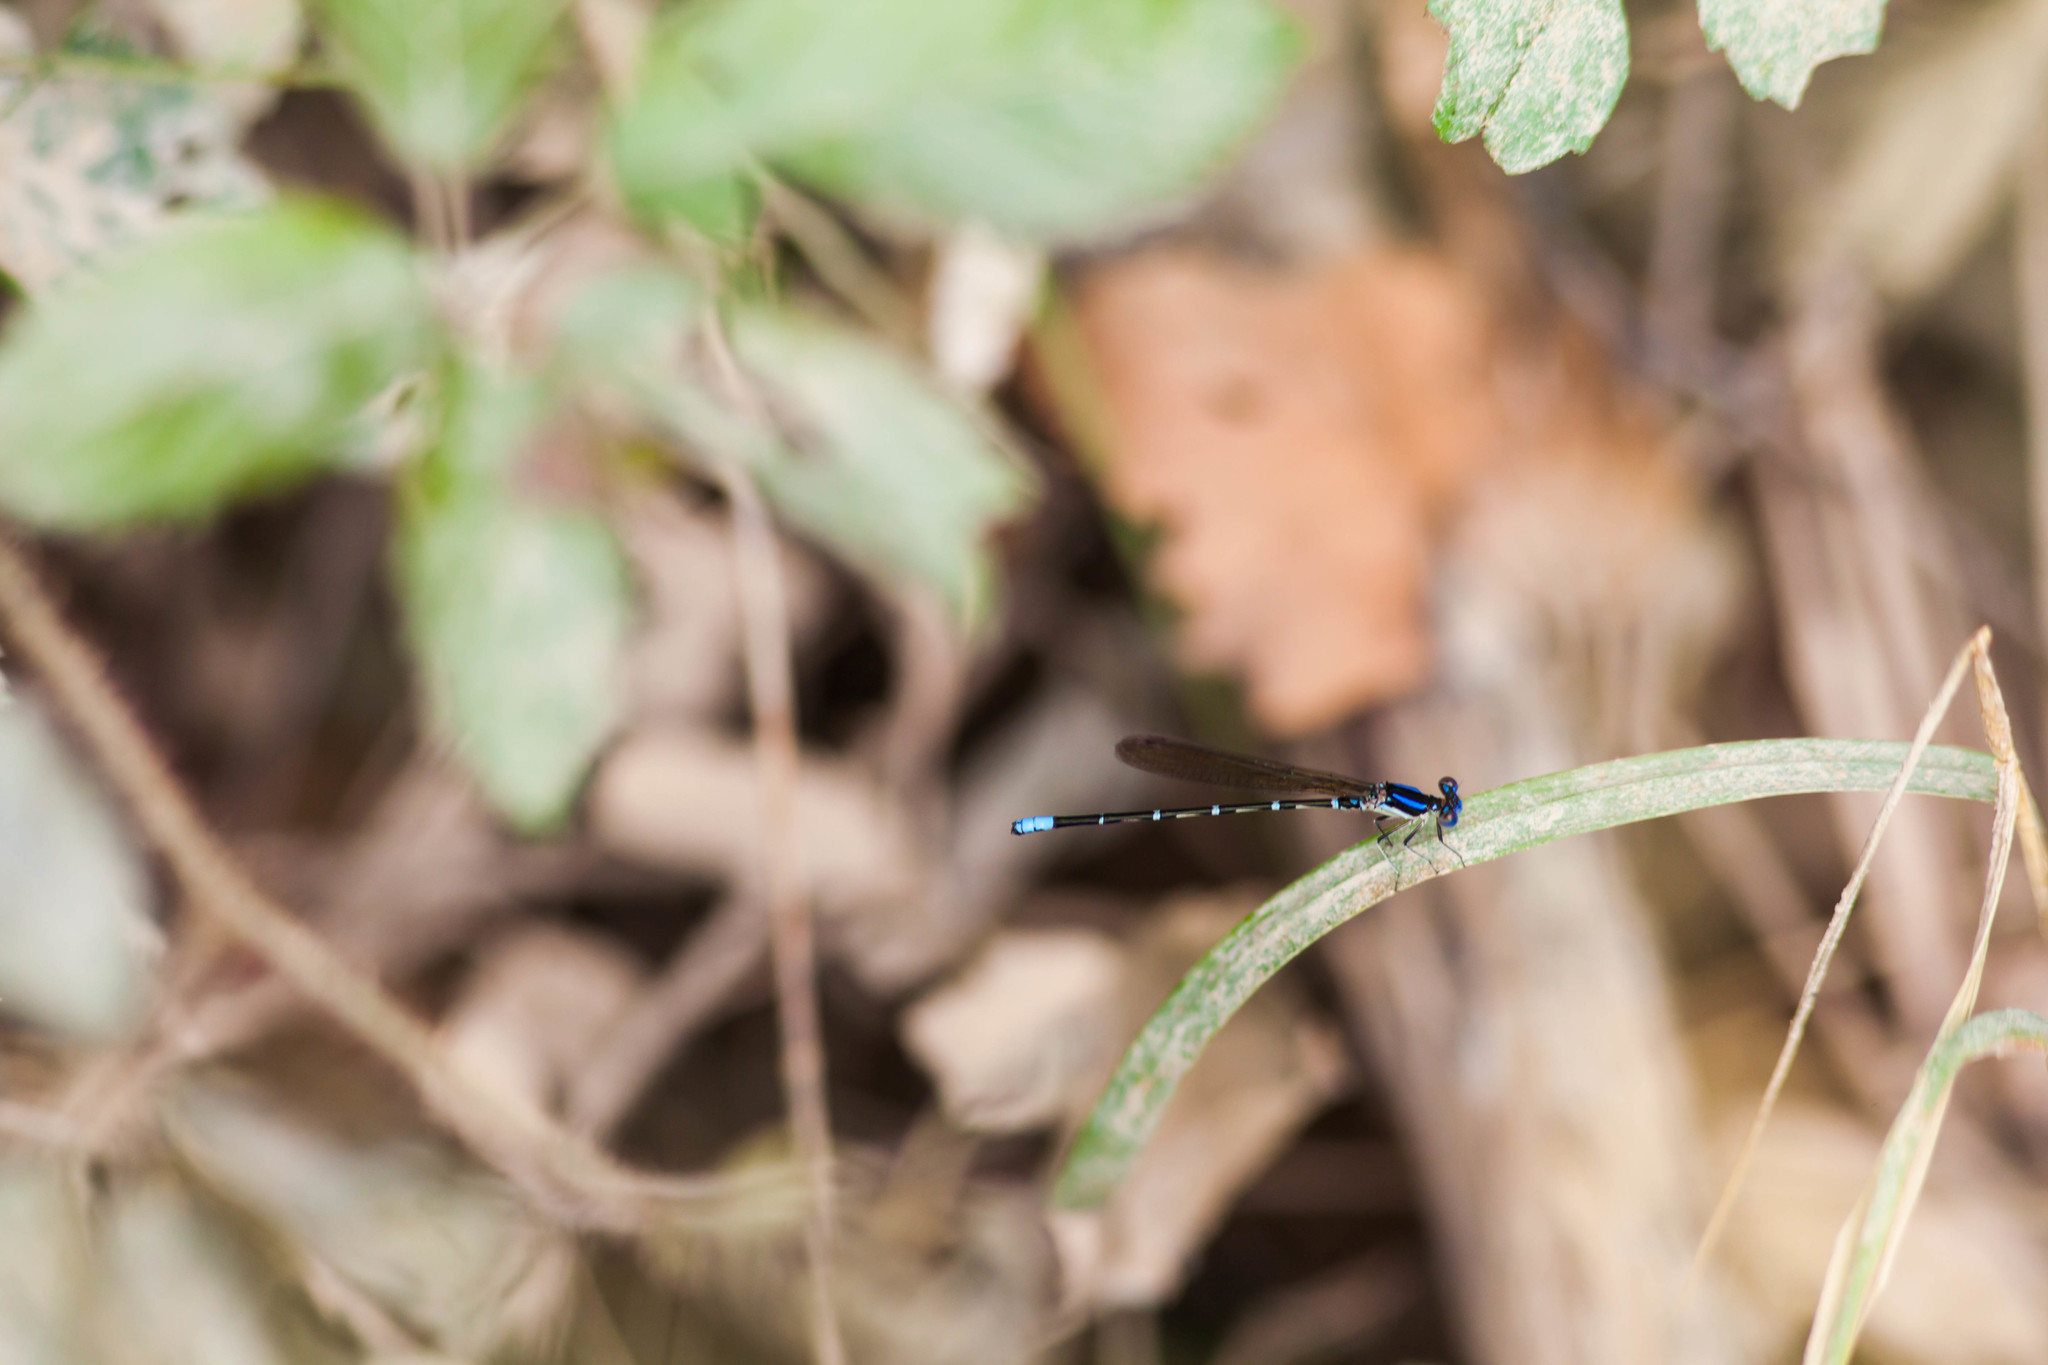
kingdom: Animalia
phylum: Arthropoda
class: Insecta
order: Odonata
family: Coenagrionidae
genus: Argia
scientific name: Argia sedula
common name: Blue-ringed dancer
